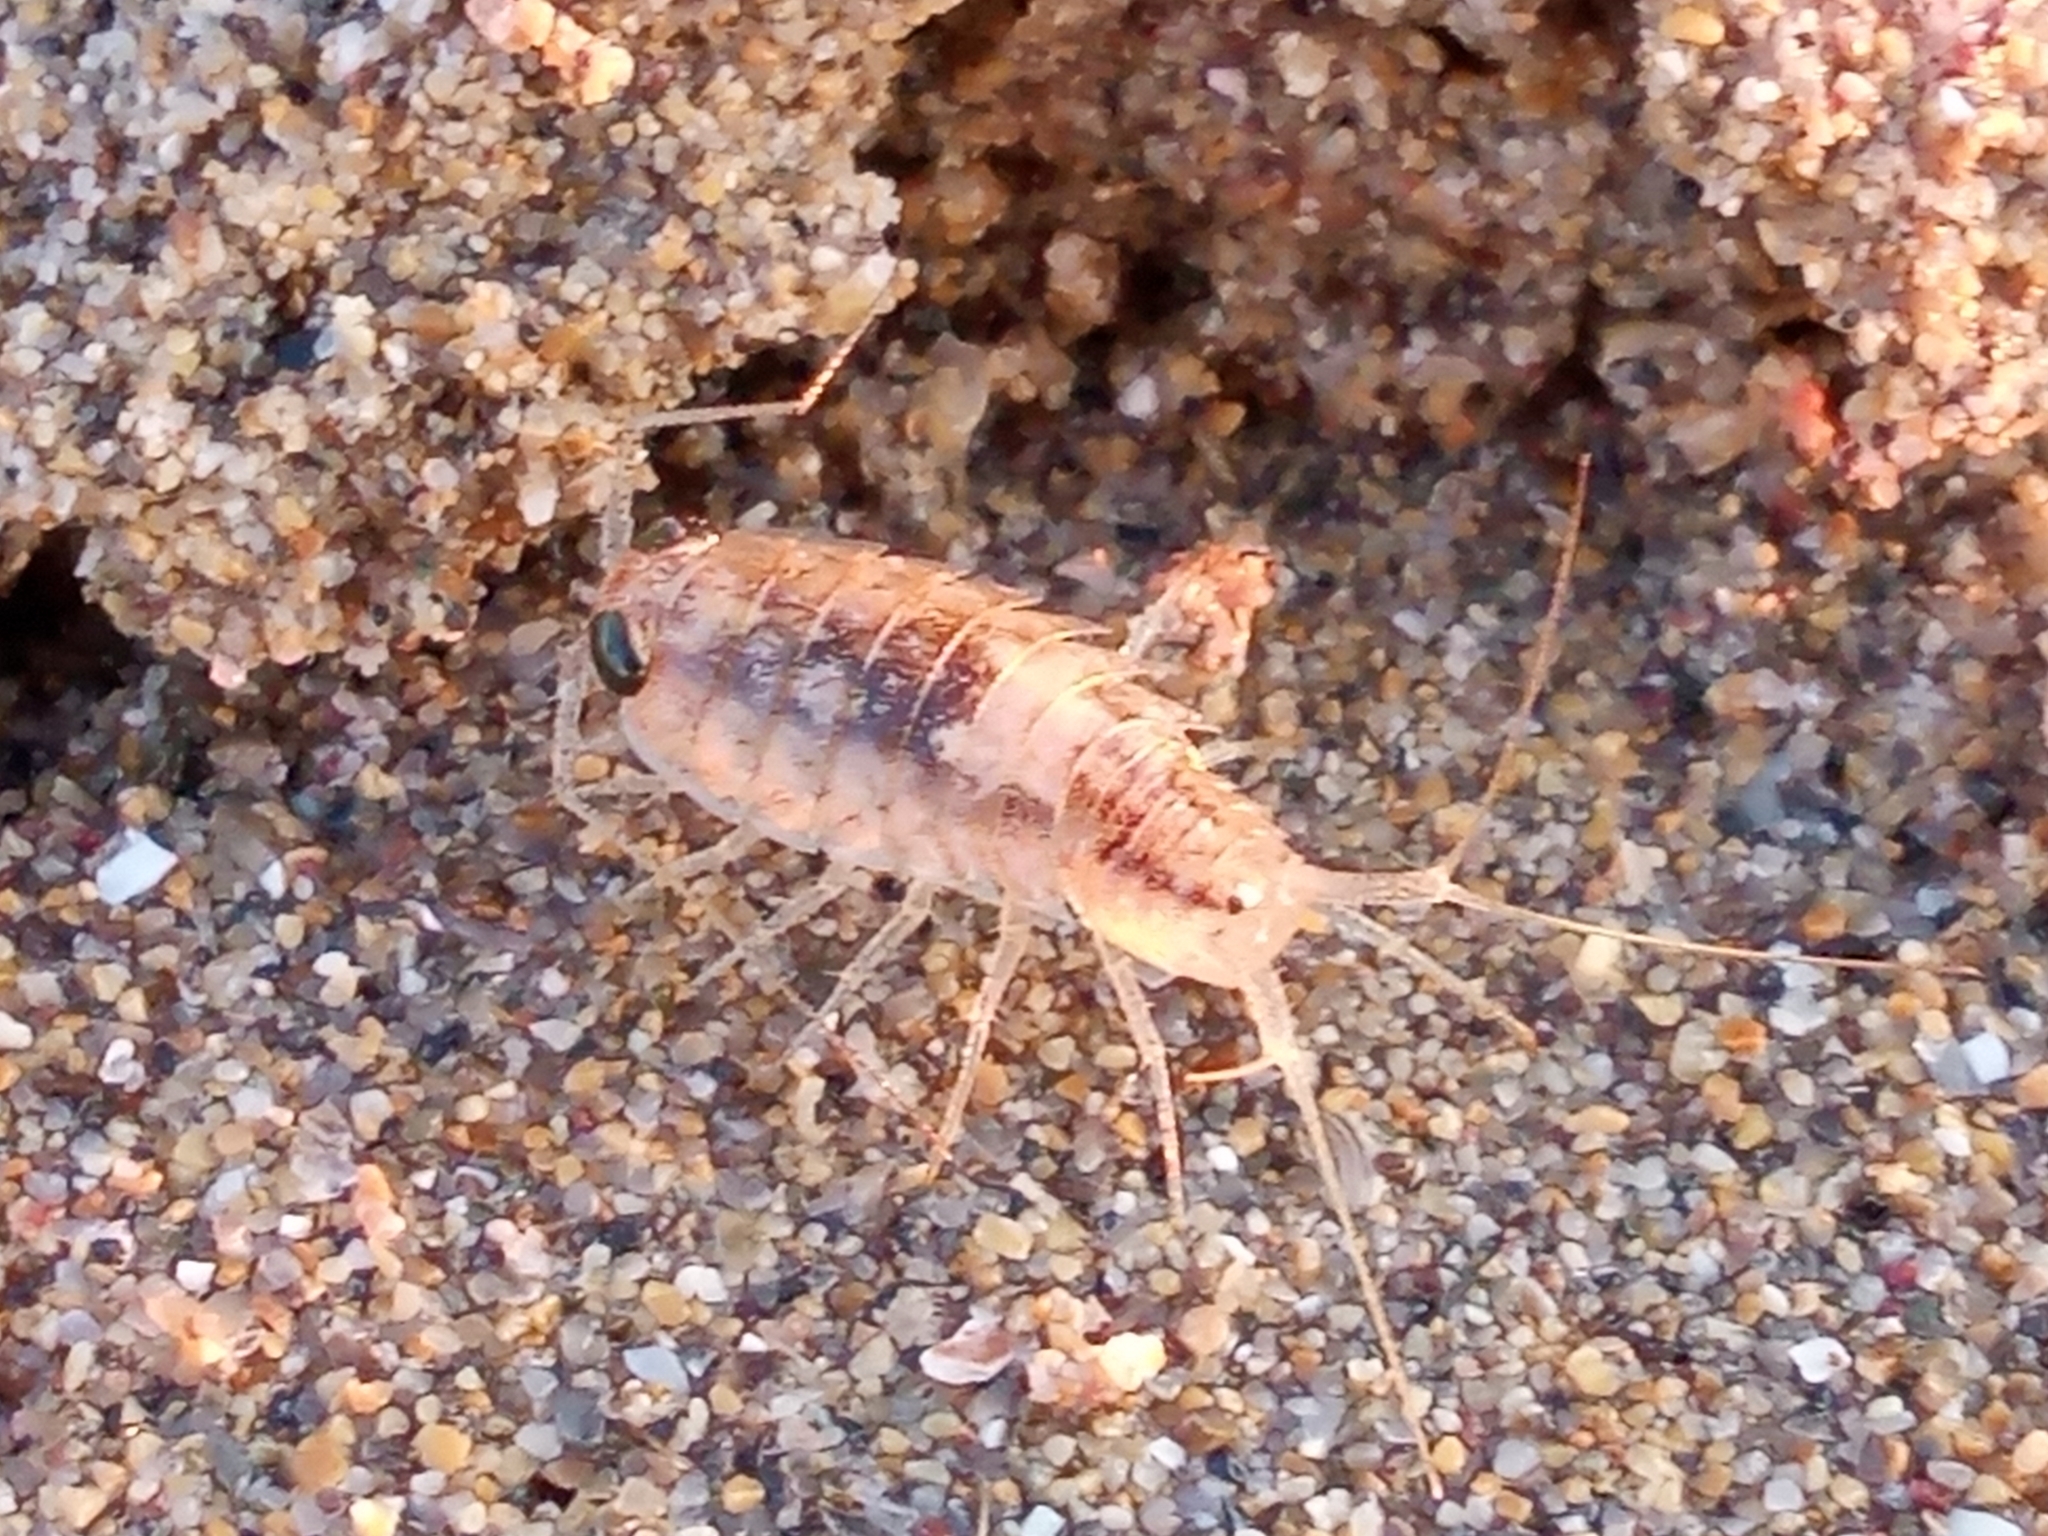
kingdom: Animalia
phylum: Arthropoda
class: Malacostraca
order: Isopoda
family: Ligiidae
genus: Ligia
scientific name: Ligia italica
